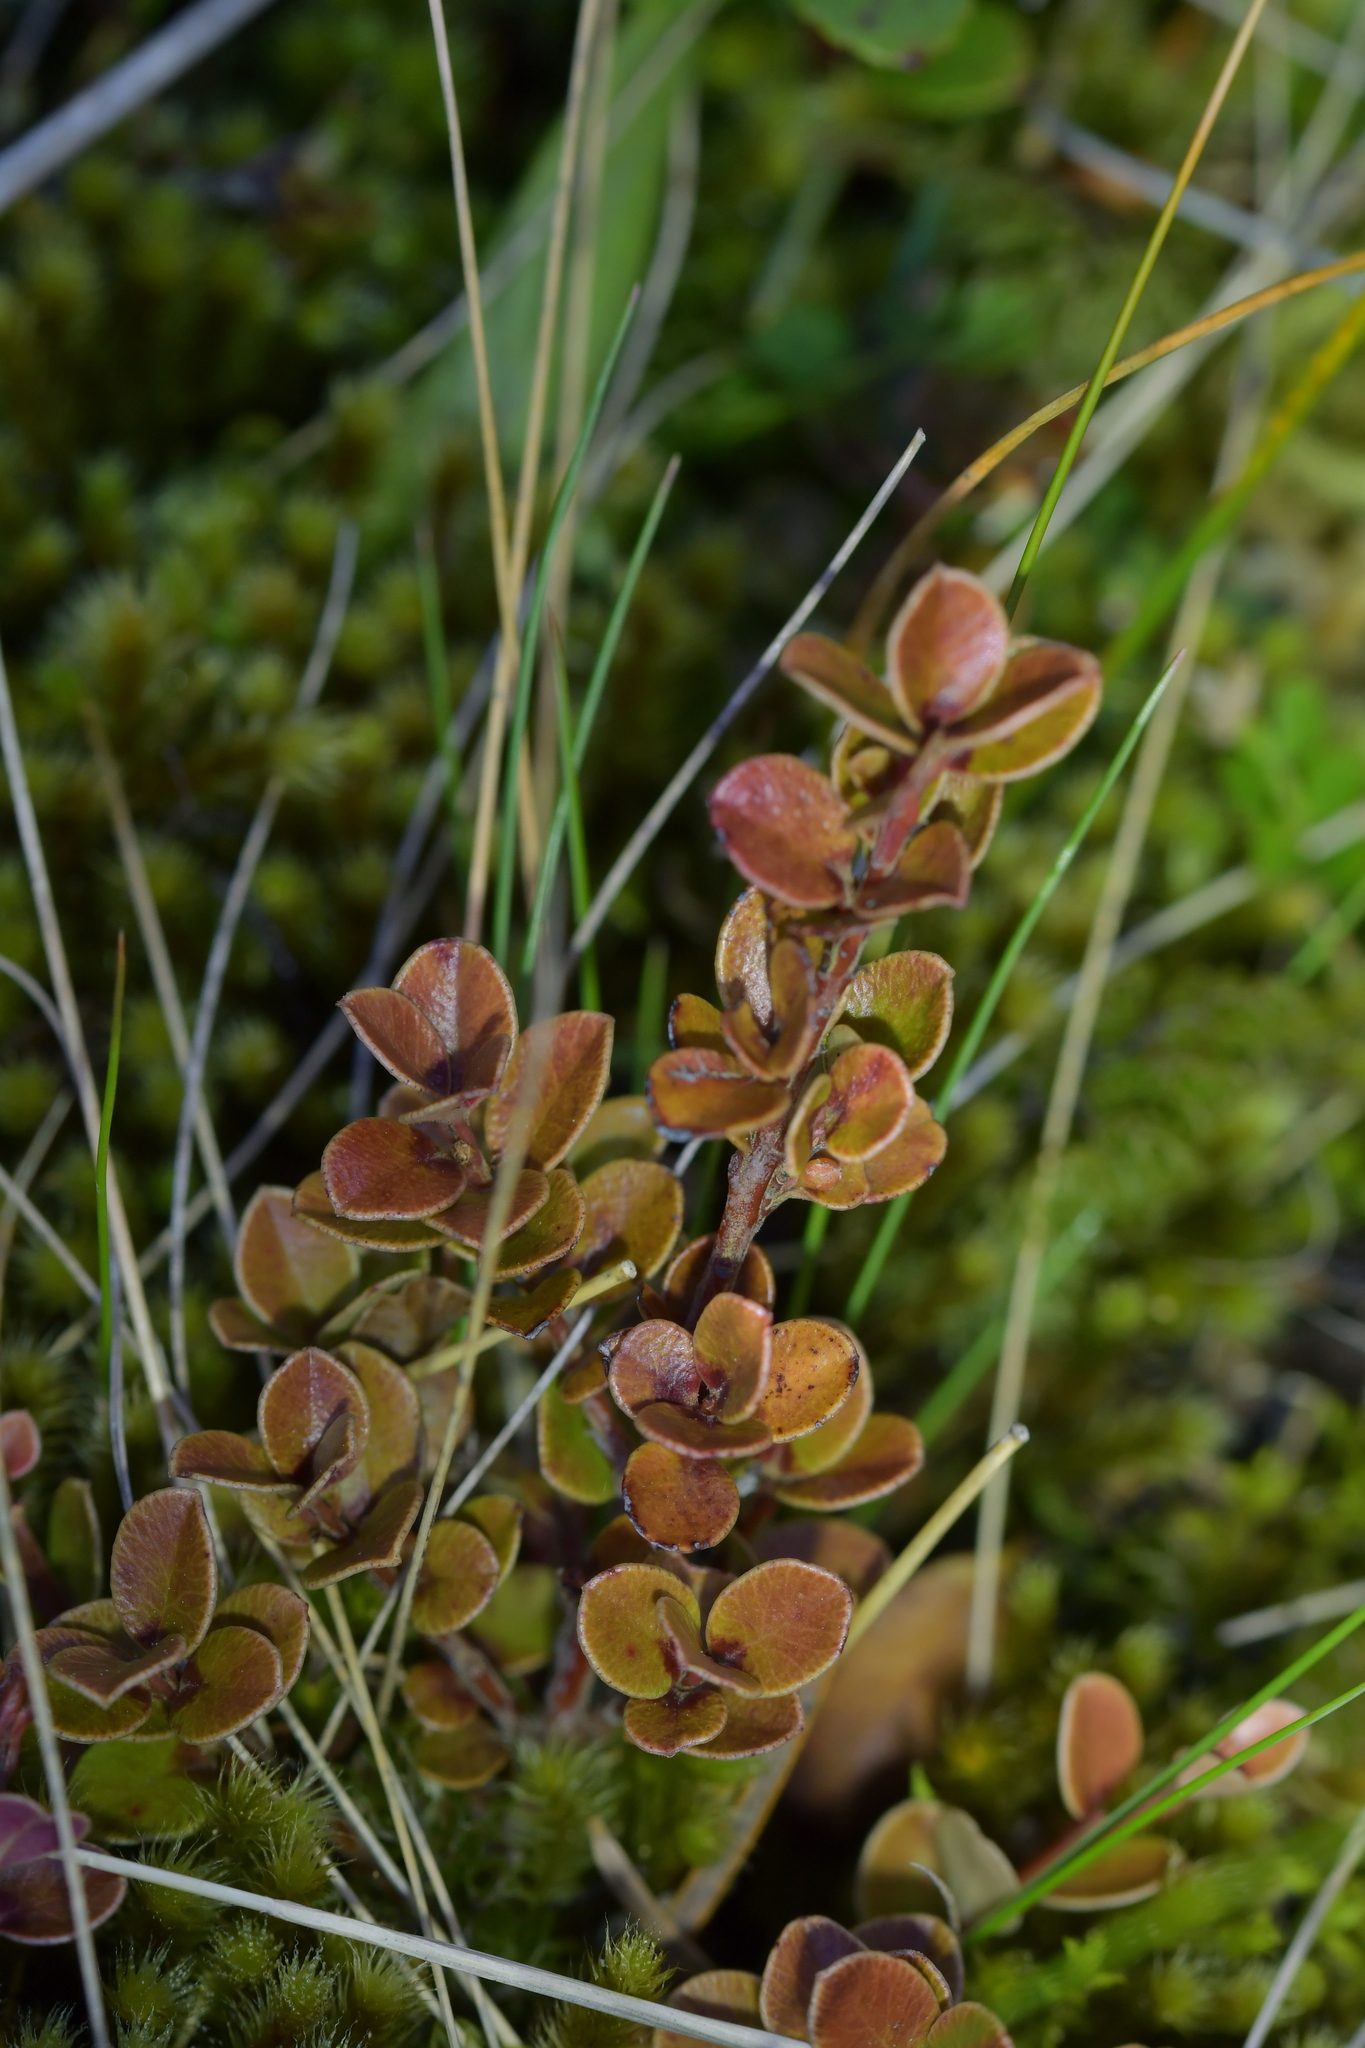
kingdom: Plantae
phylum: Tracheophyta
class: Magnoliopsida
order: Ericales
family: Primulaceae
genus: Myrsine
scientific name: Myrsine nummularia
